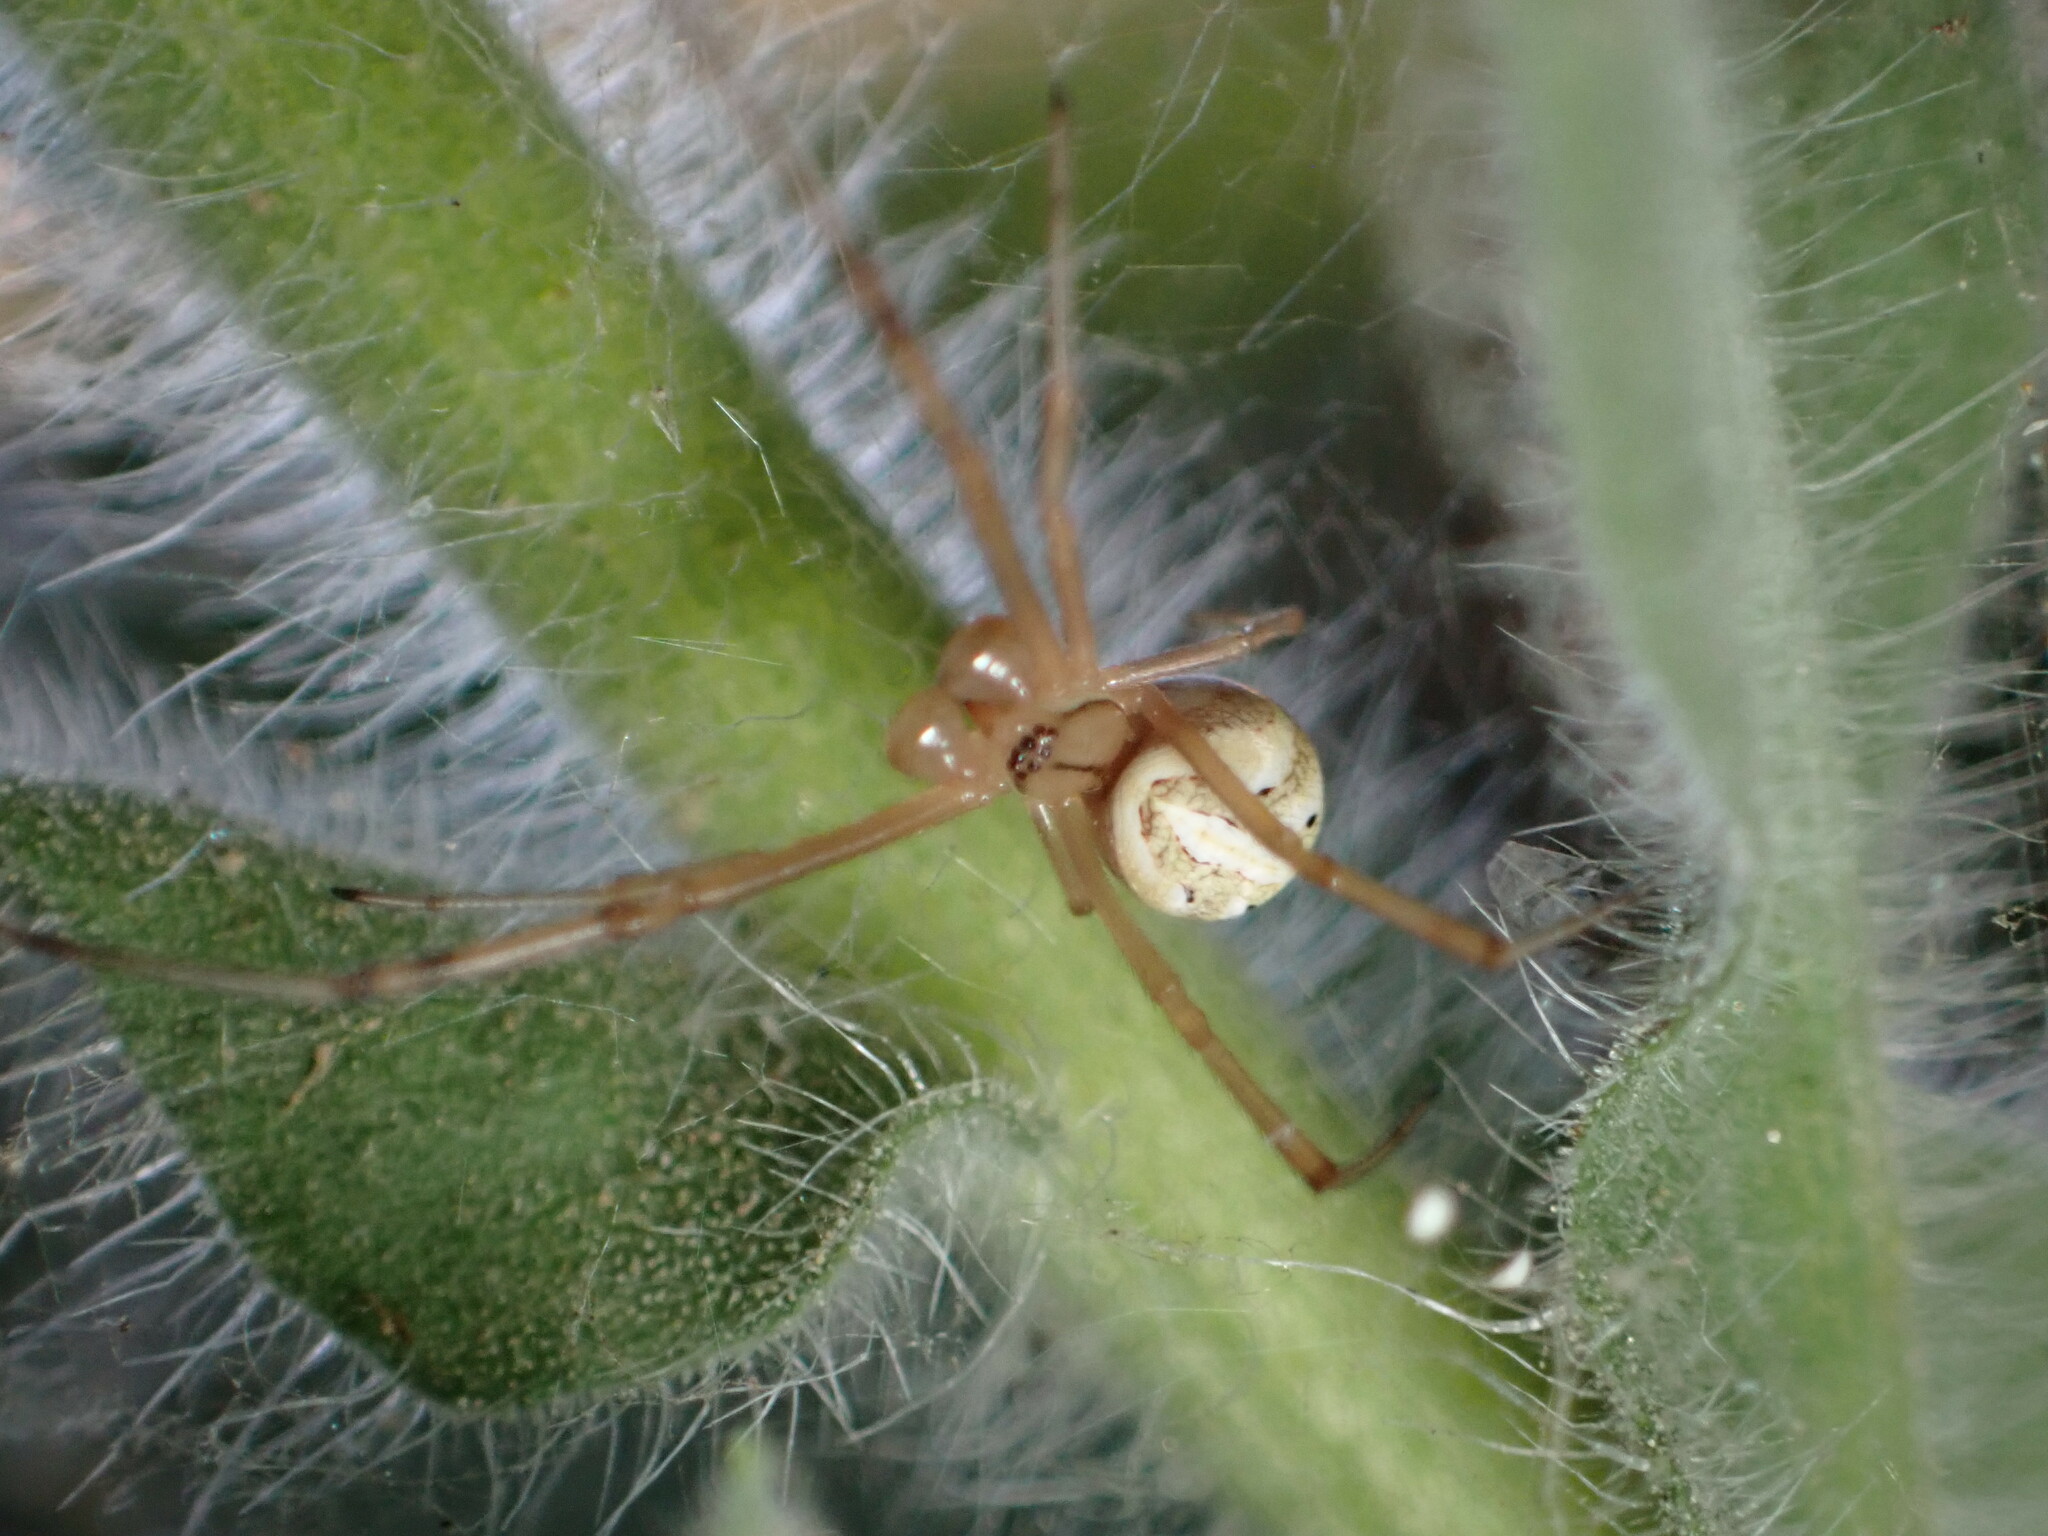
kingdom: Animalia
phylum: Arthropoda
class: Arachnida
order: Araneae
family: Theridiidae
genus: Latrodectus
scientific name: Latrodectus hesperus
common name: Western black widow
